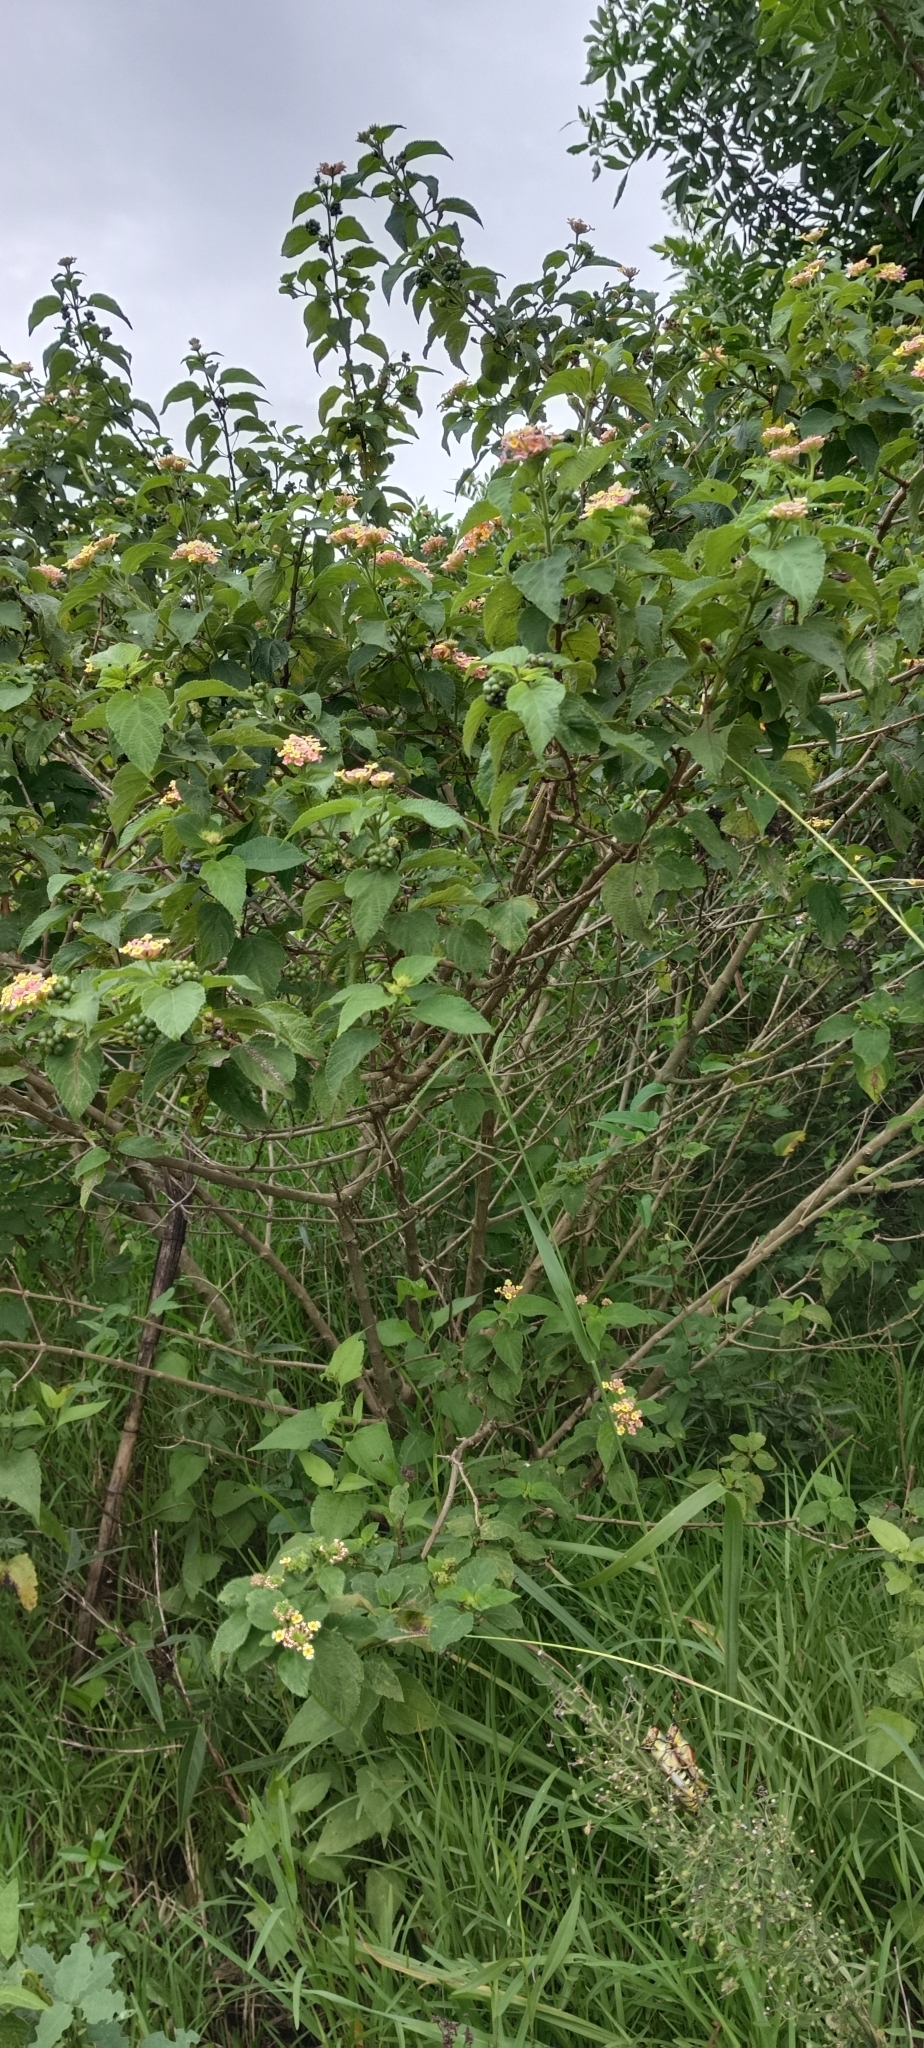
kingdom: Plantae
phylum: Tracheophyta
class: Magnoliopsida
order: Lamiales
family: Verbenaceae
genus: Lantana
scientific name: Lantana camara
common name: Lantana
